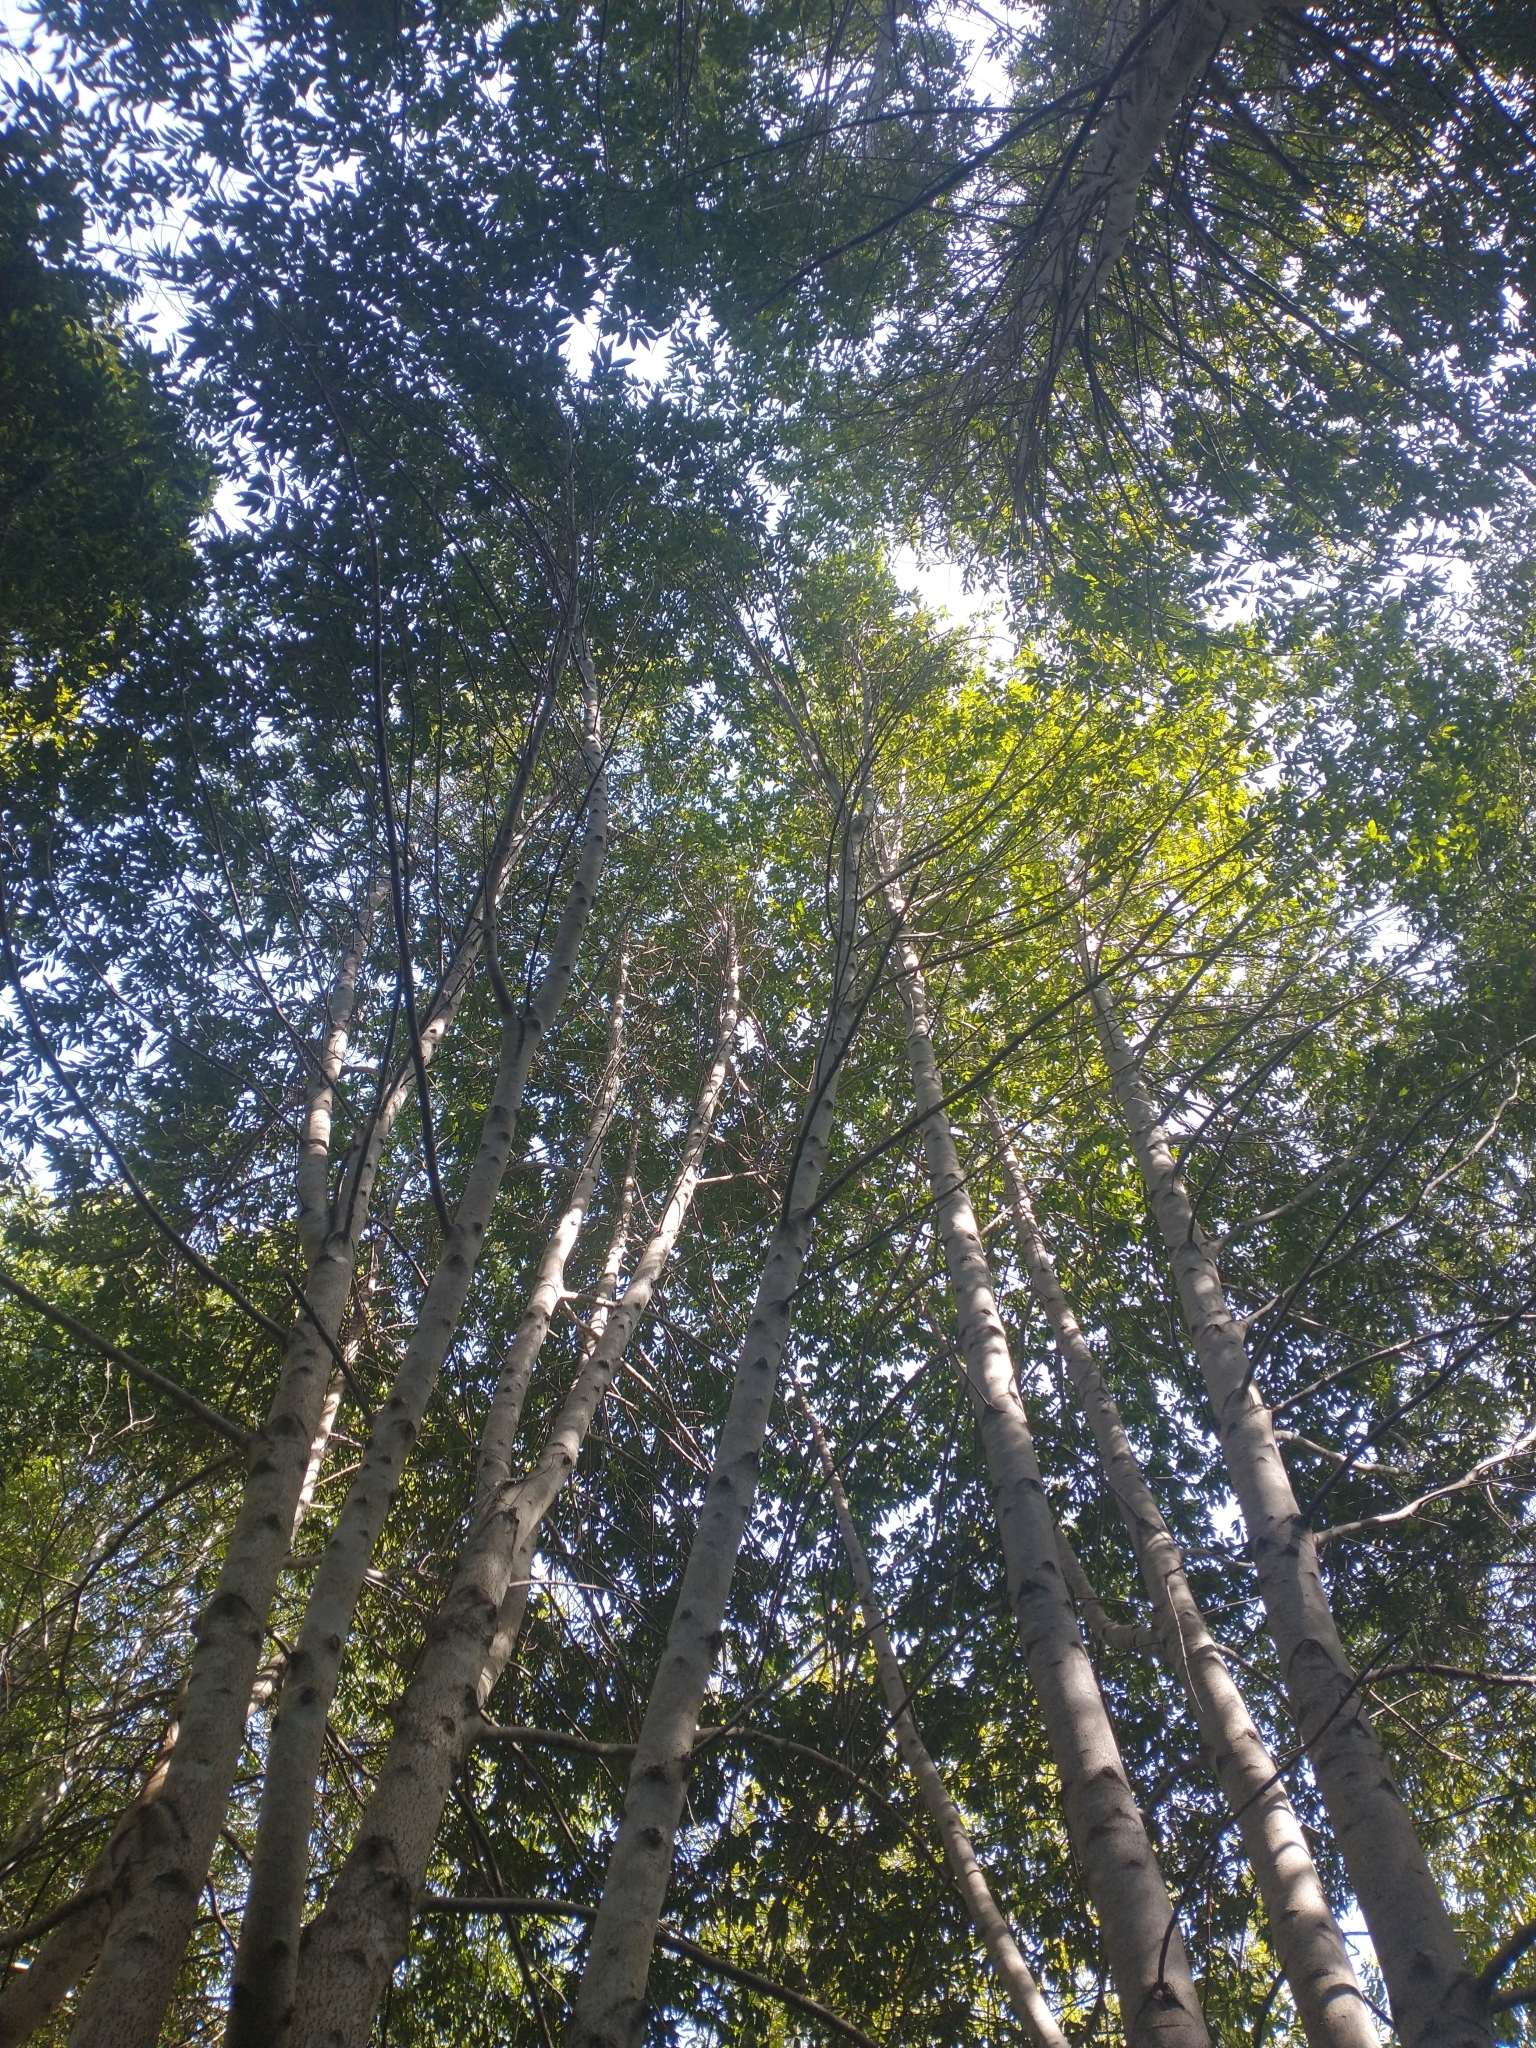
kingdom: Plantae
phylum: Tracheophyta
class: Magnoliopsida
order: Laurales
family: Lauraceae
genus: Umbellularia
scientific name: Umbellularia californica
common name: California bay
